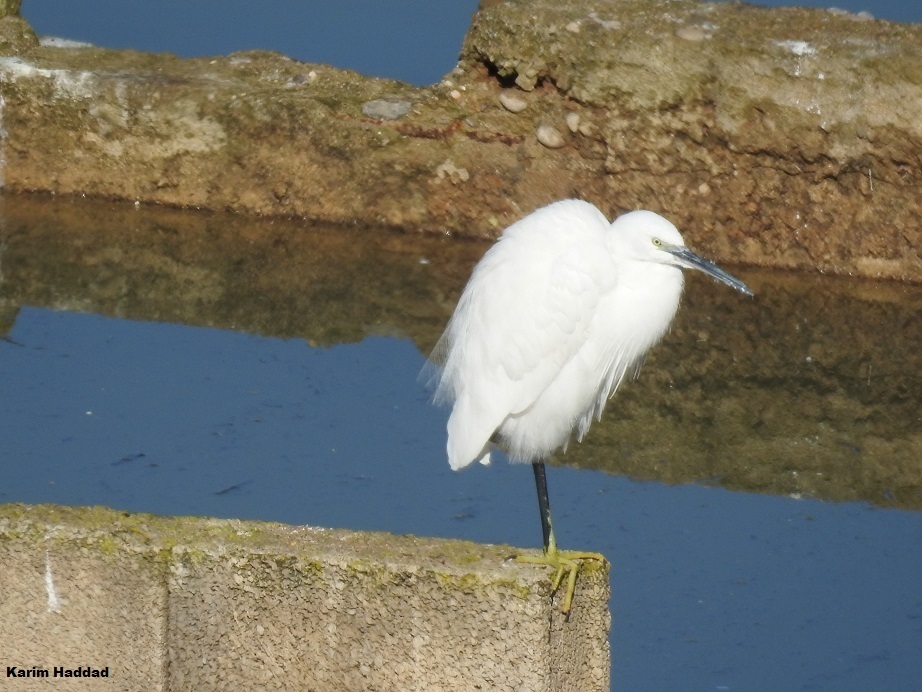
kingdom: Animalia
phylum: Chordata
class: Aves
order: Pelecaniformes
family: Ardeidae
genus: Egretta
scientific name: Egretta garzetta
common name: Little egret
